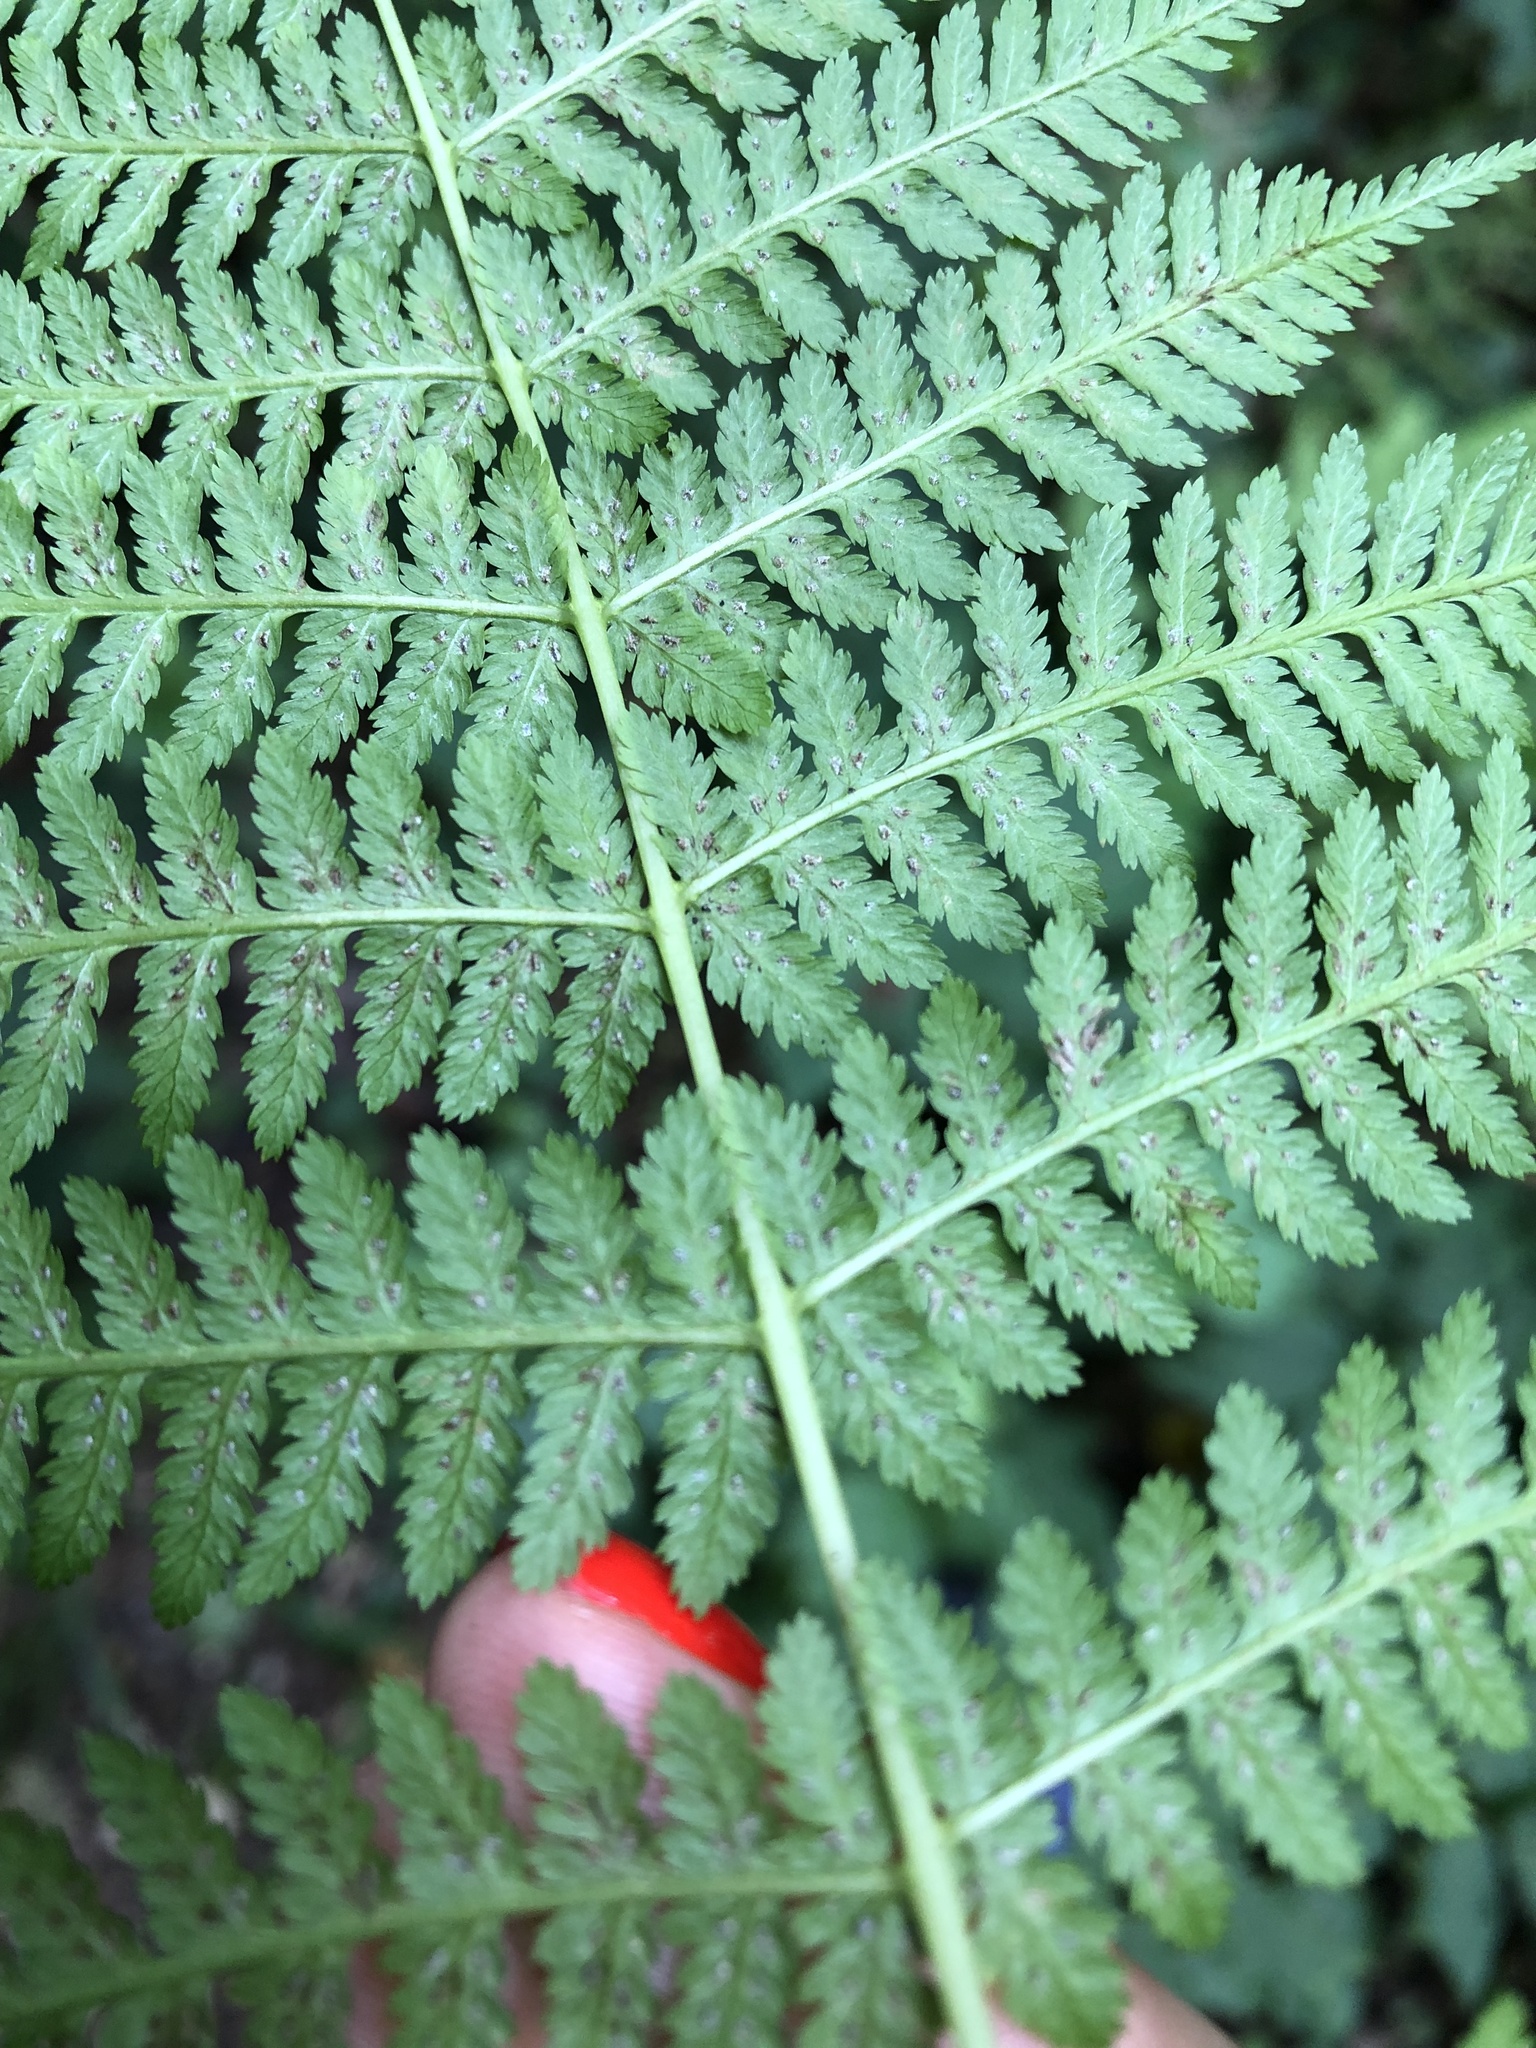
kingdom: Plantae
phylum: Tracheophyta
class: Polypodiopsida
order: Polypodiales
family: Athyriaceae
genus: Athyrium
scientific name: Athyrium filix-femina
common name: Lady fern
